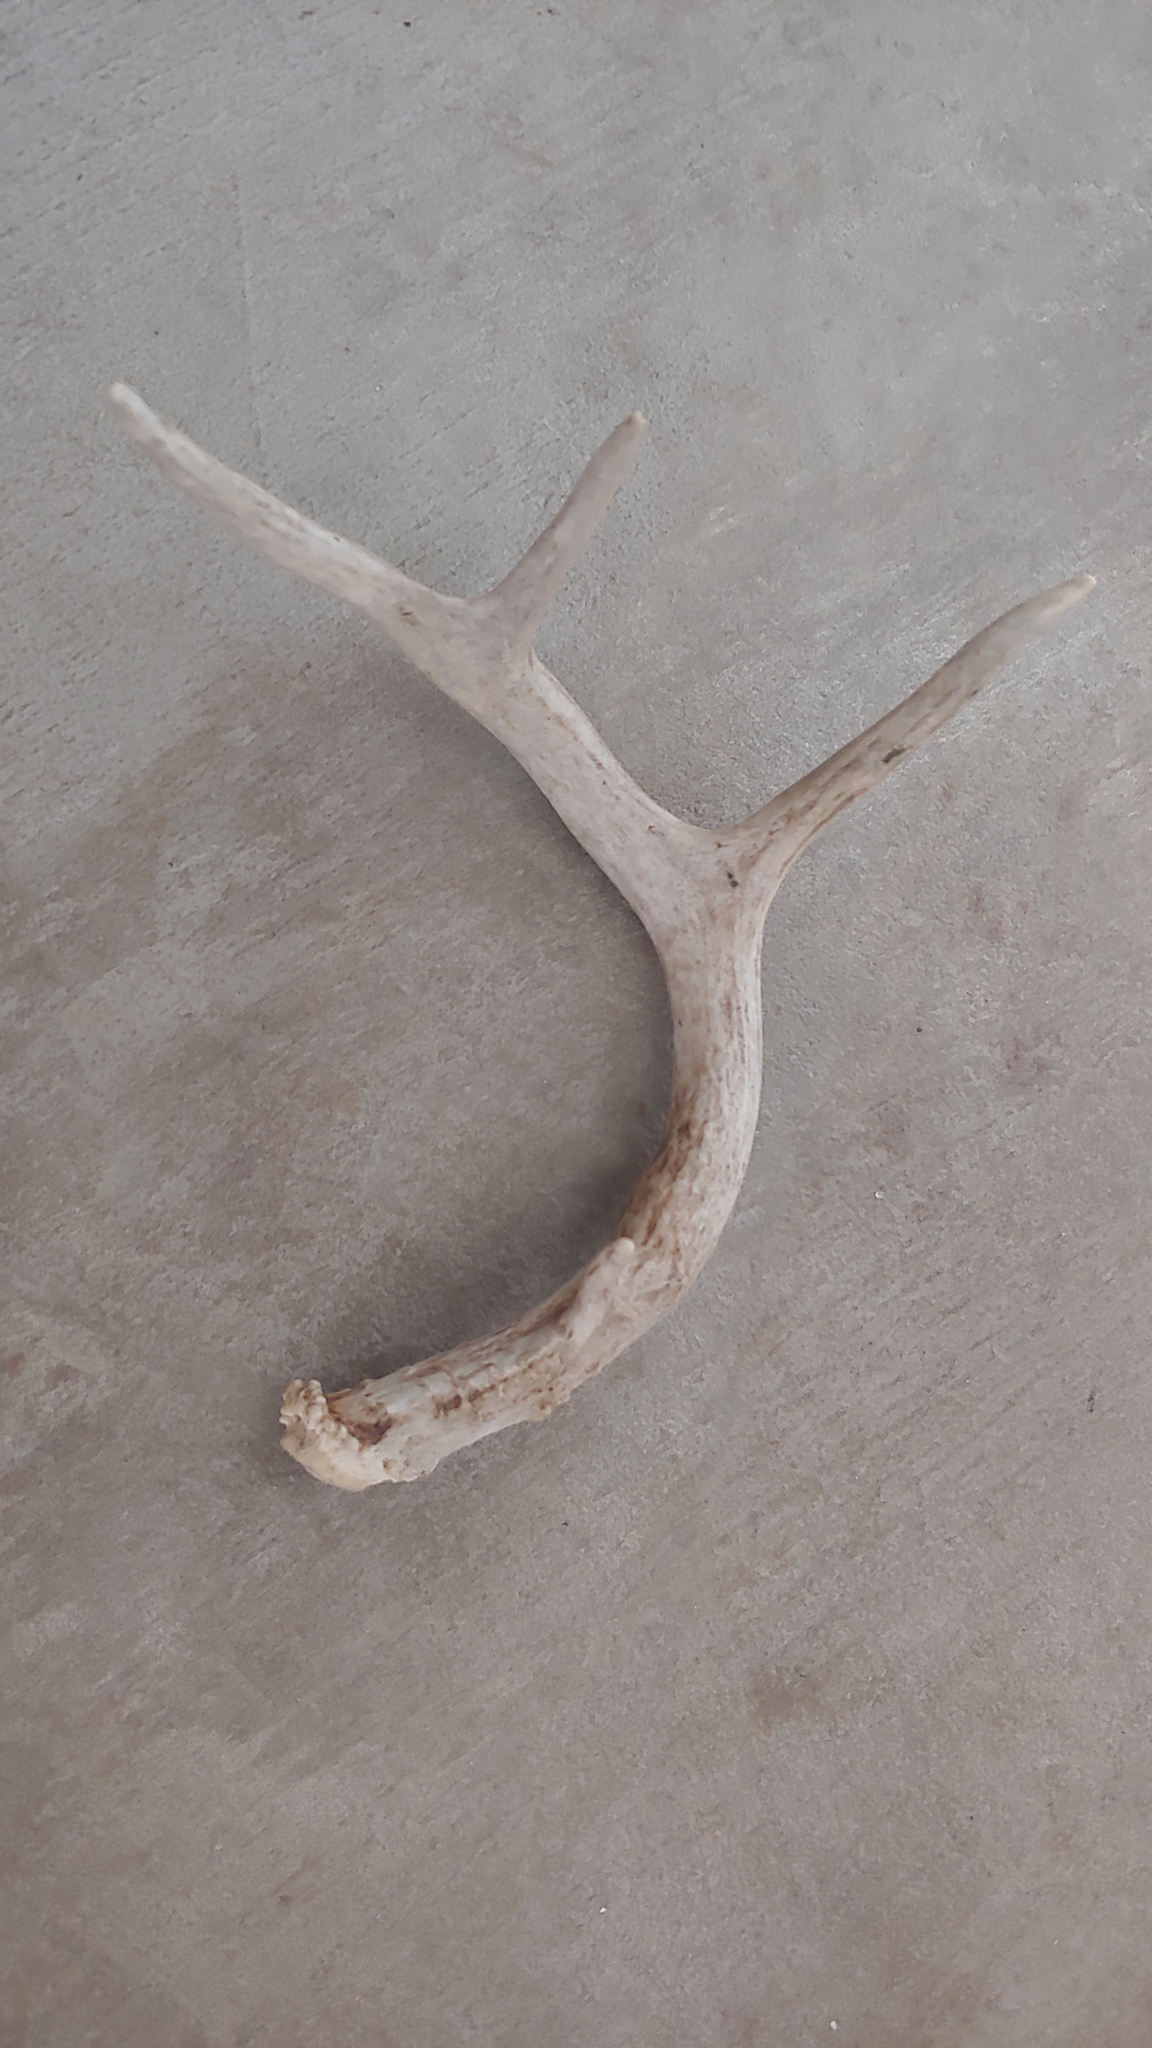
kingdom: Animalia
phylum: Chordata
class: Mammalia
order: Artiodactyla
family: Cervidae
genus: Odocoileus
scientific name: Odocoileus virginianus
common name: White-tailed deer
